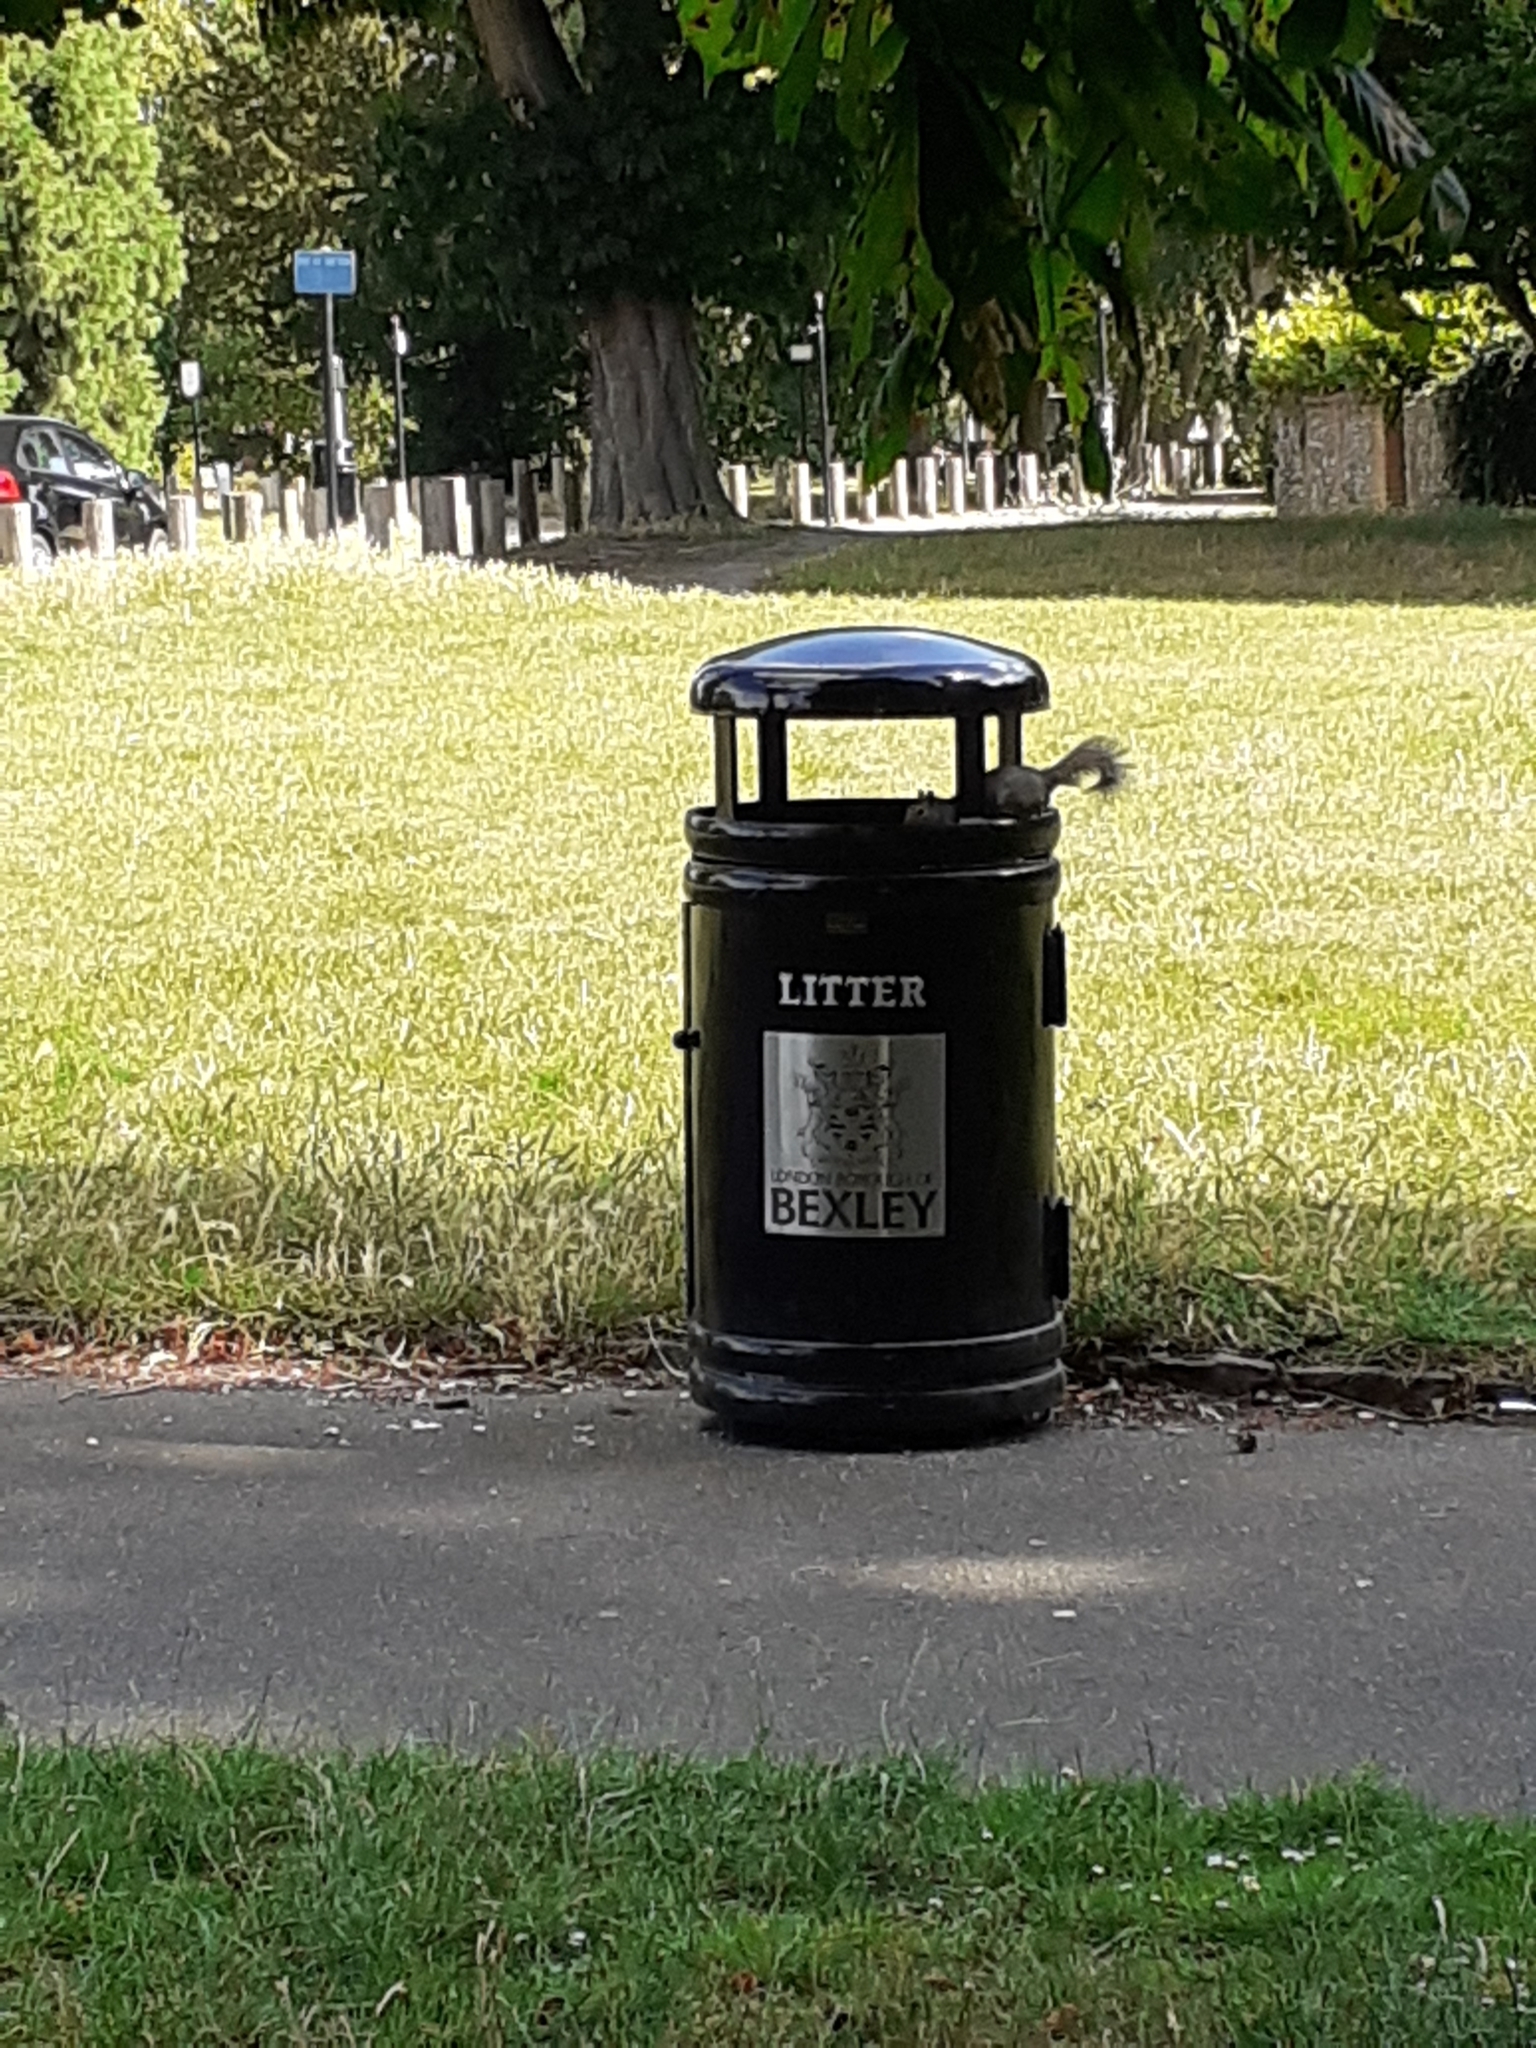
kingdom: Animalia
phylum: Chordata
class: Mammalia
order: Rodentia
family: Sciuridae
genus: Sciurus
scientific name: Sciurus carolinensis
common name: Eastern gray squirrel
